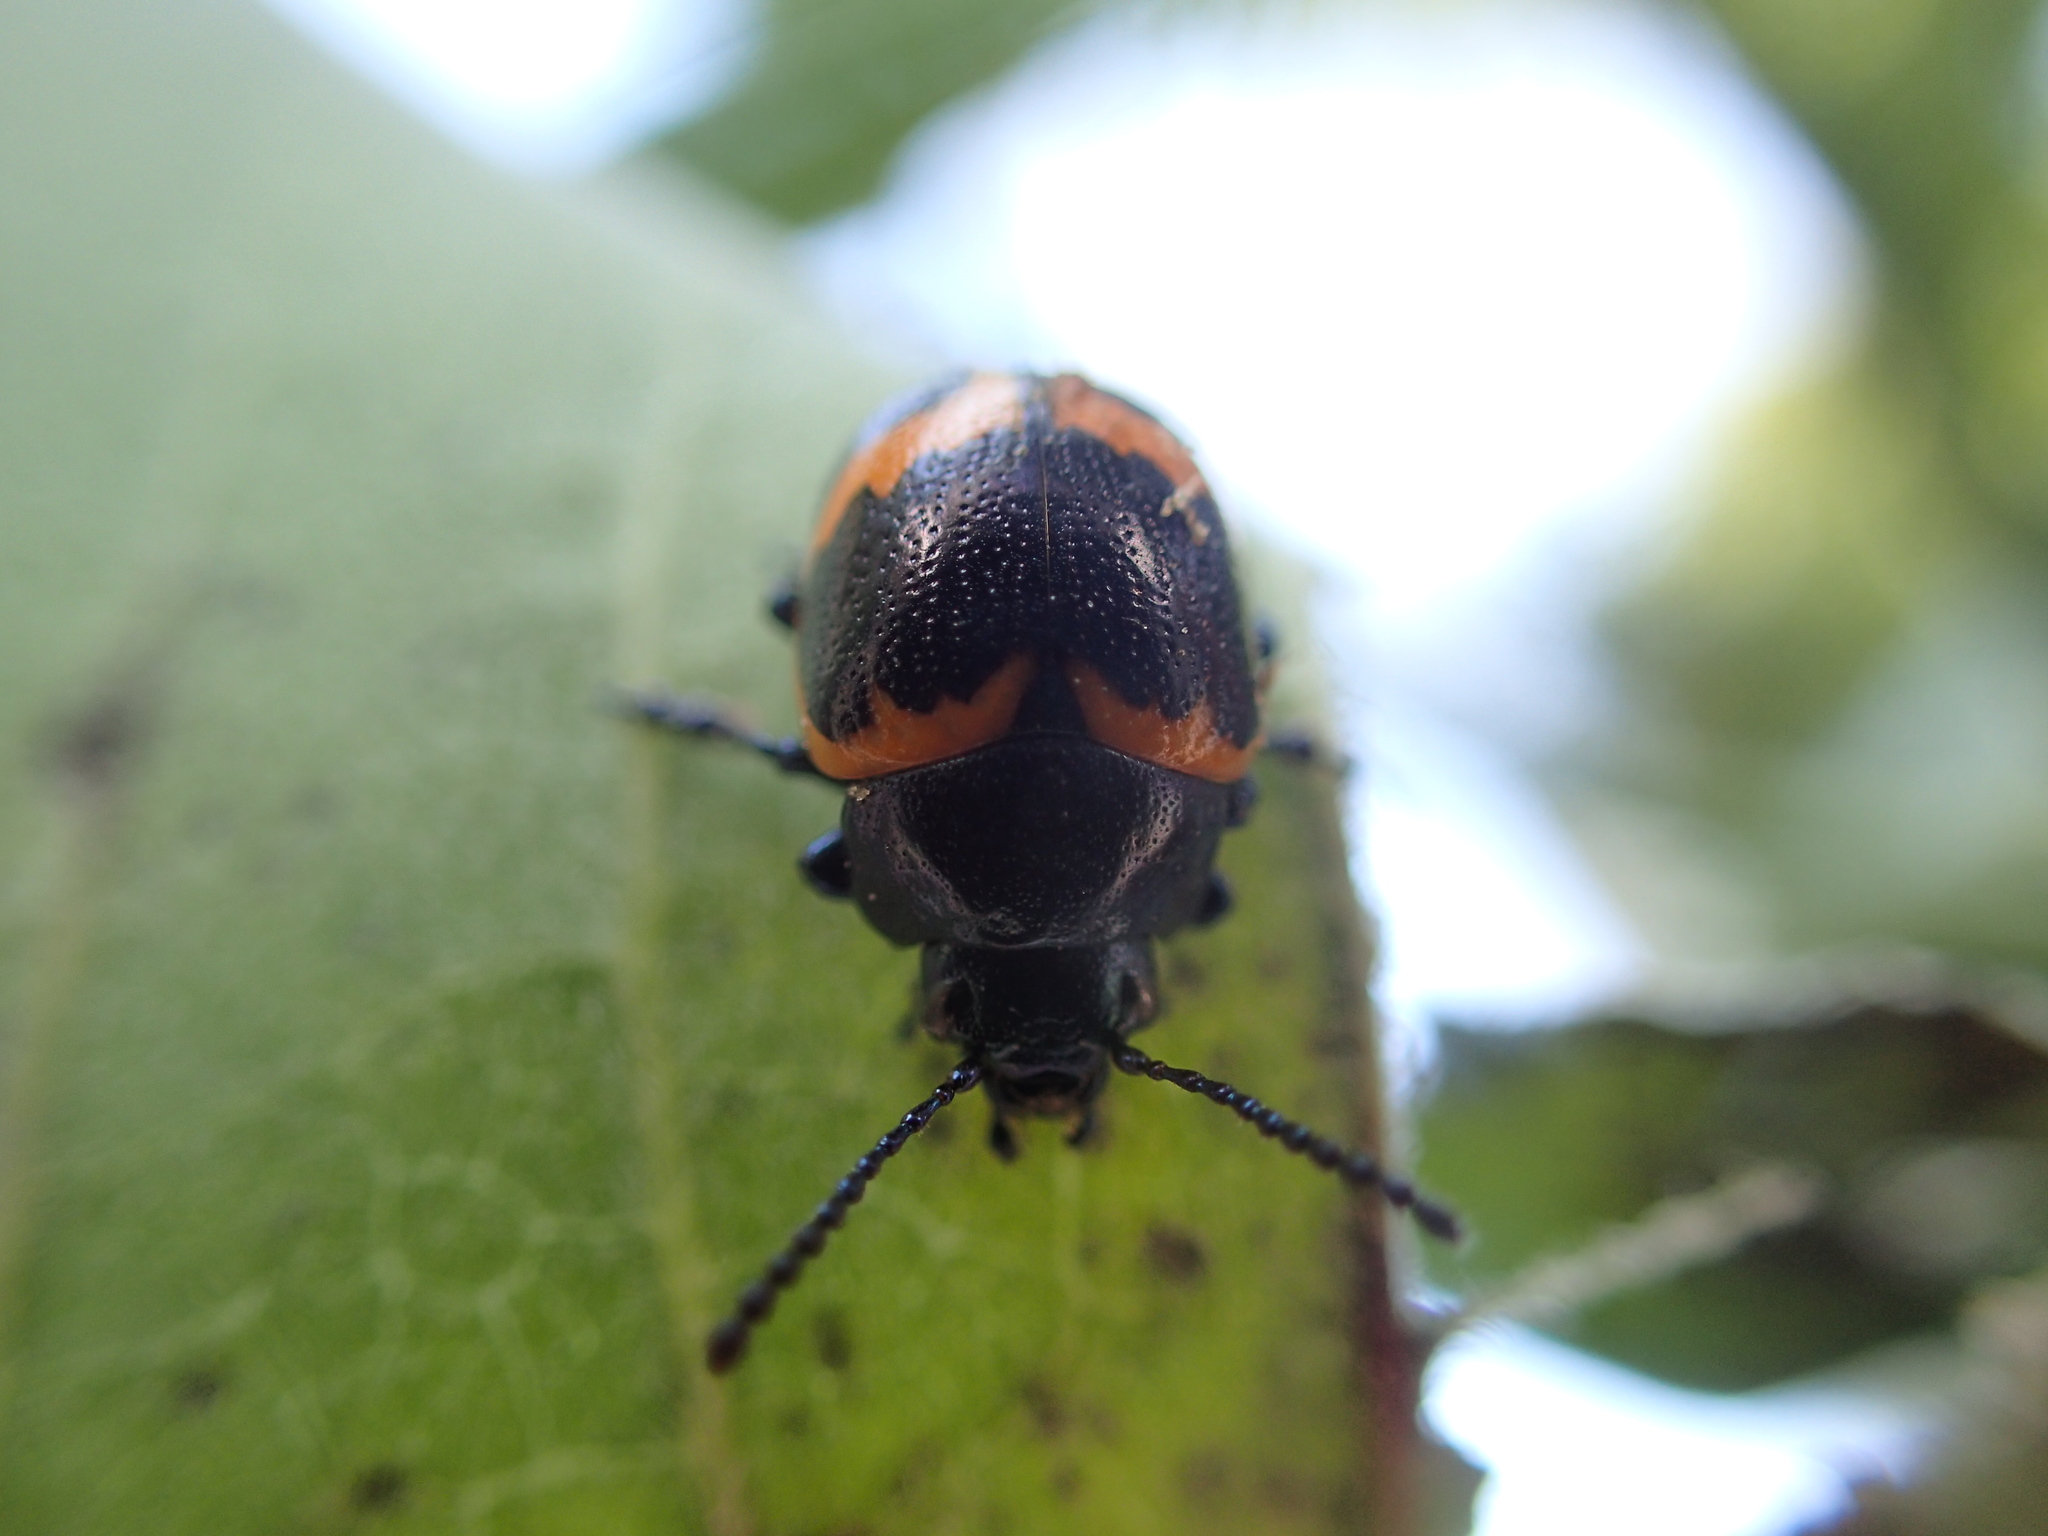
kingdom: Animalia
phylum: Arthropoda
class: Insecta
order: Coleoptera
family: Chrysomelidae
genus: Labidomera
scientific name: Labidomera clivicollis
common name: Swamp milkweed leaf beetle
